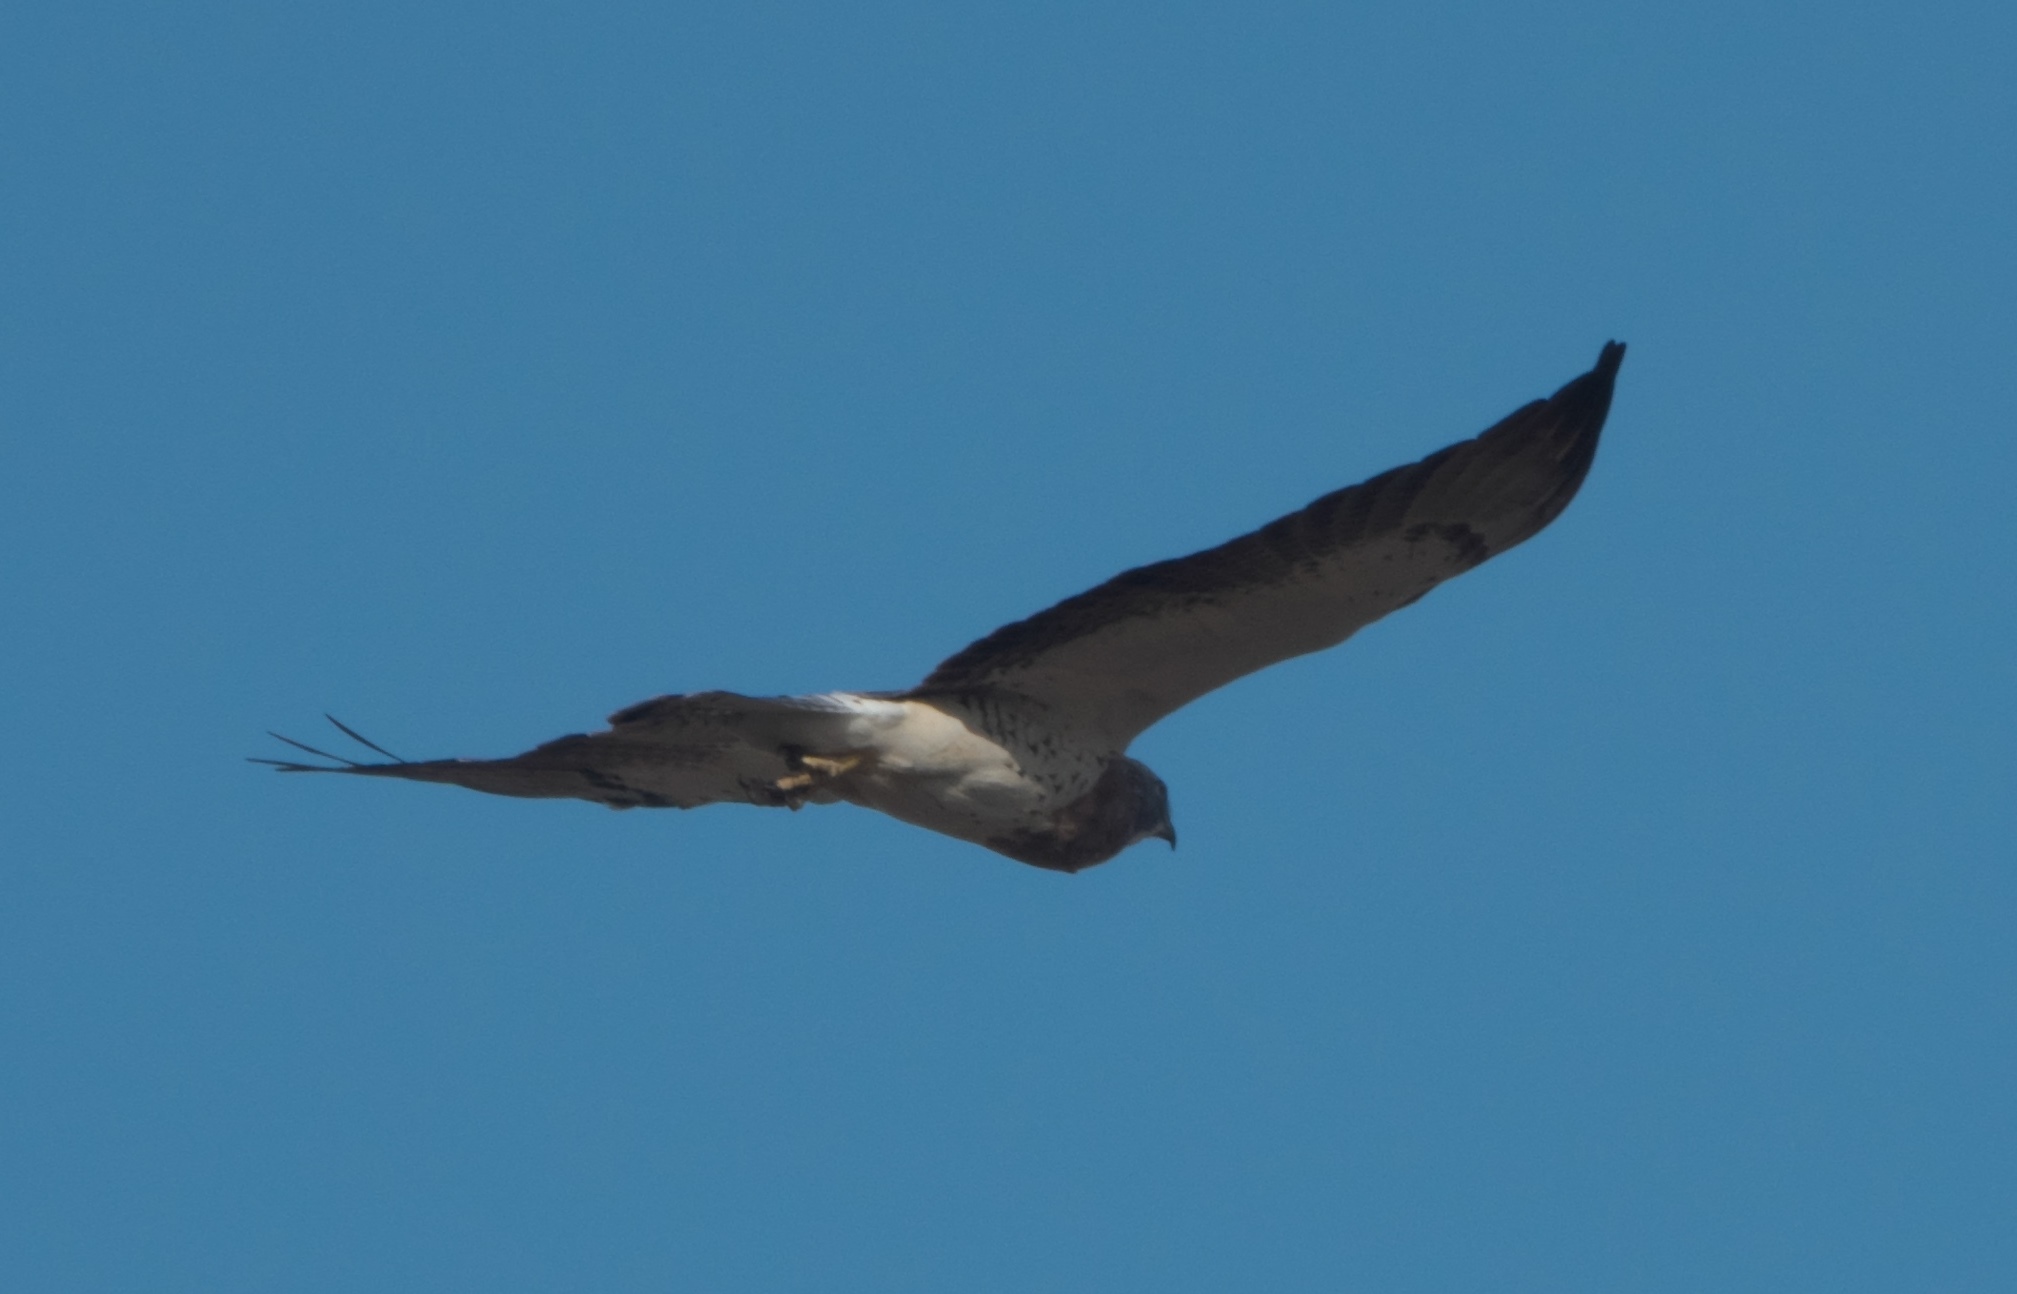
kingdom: Animalia
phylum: Chordata
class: Aves
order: Accipitriformes
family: Accipitridae
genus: Buteo
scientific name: Buteo swainsoni
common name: Swainson's hawk
